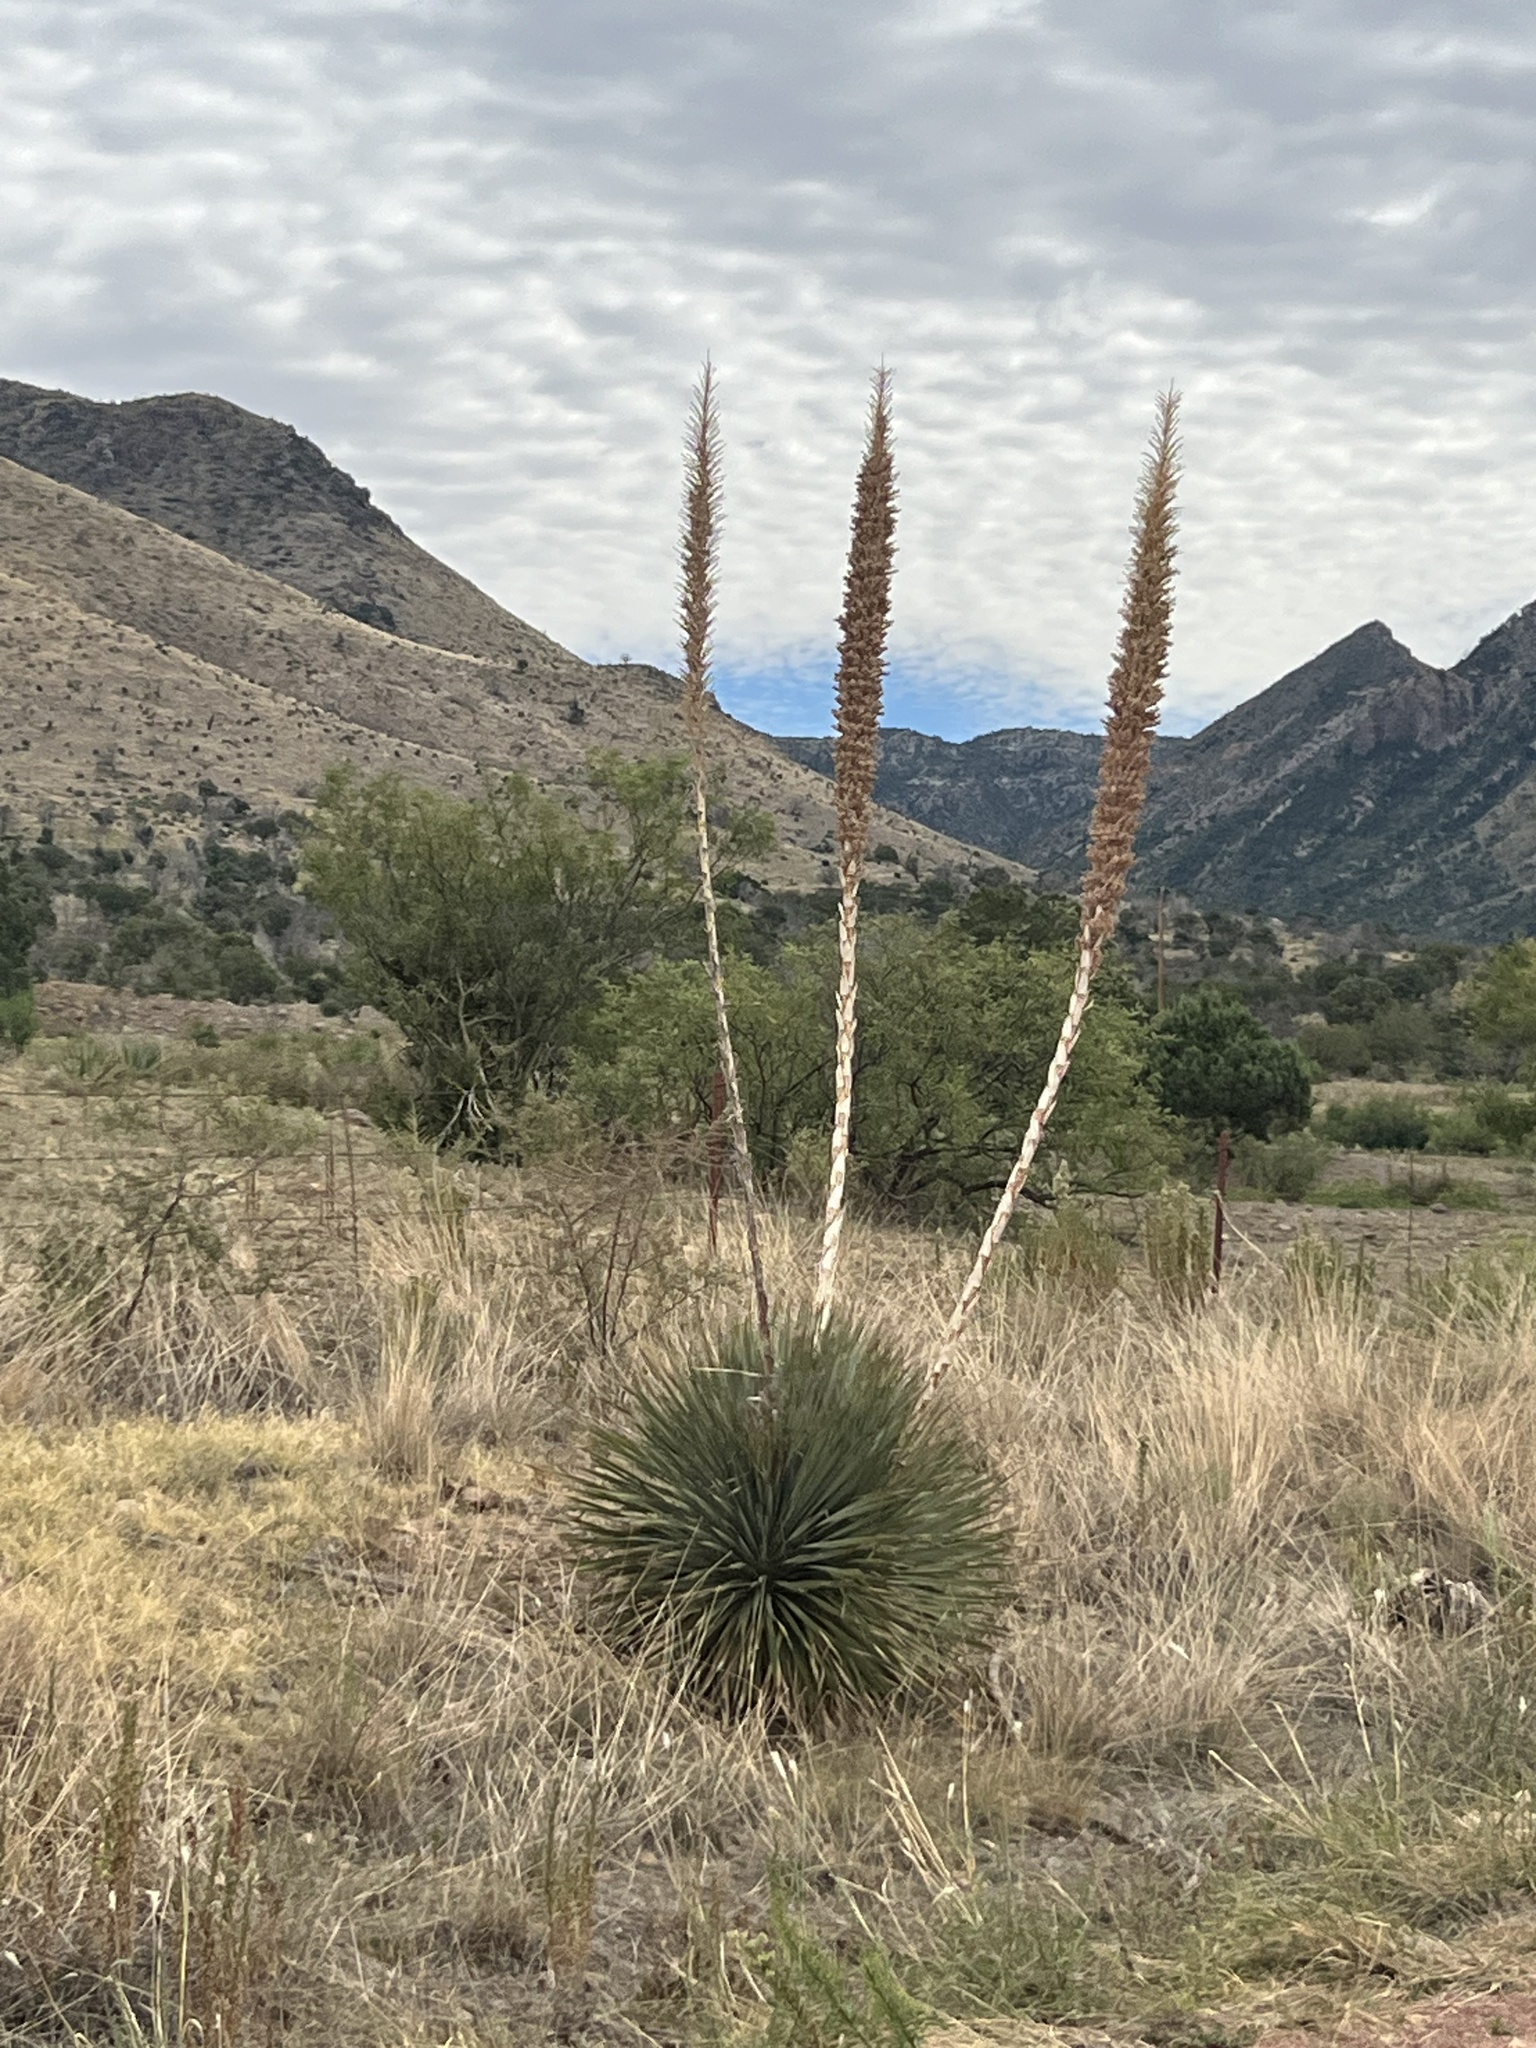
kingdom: Plantae
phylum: Tracheophyta
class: Liliopsida
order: Asparagales
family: Asparagaceae
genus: Dasylirion
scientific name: Dasylirion wheeleri
